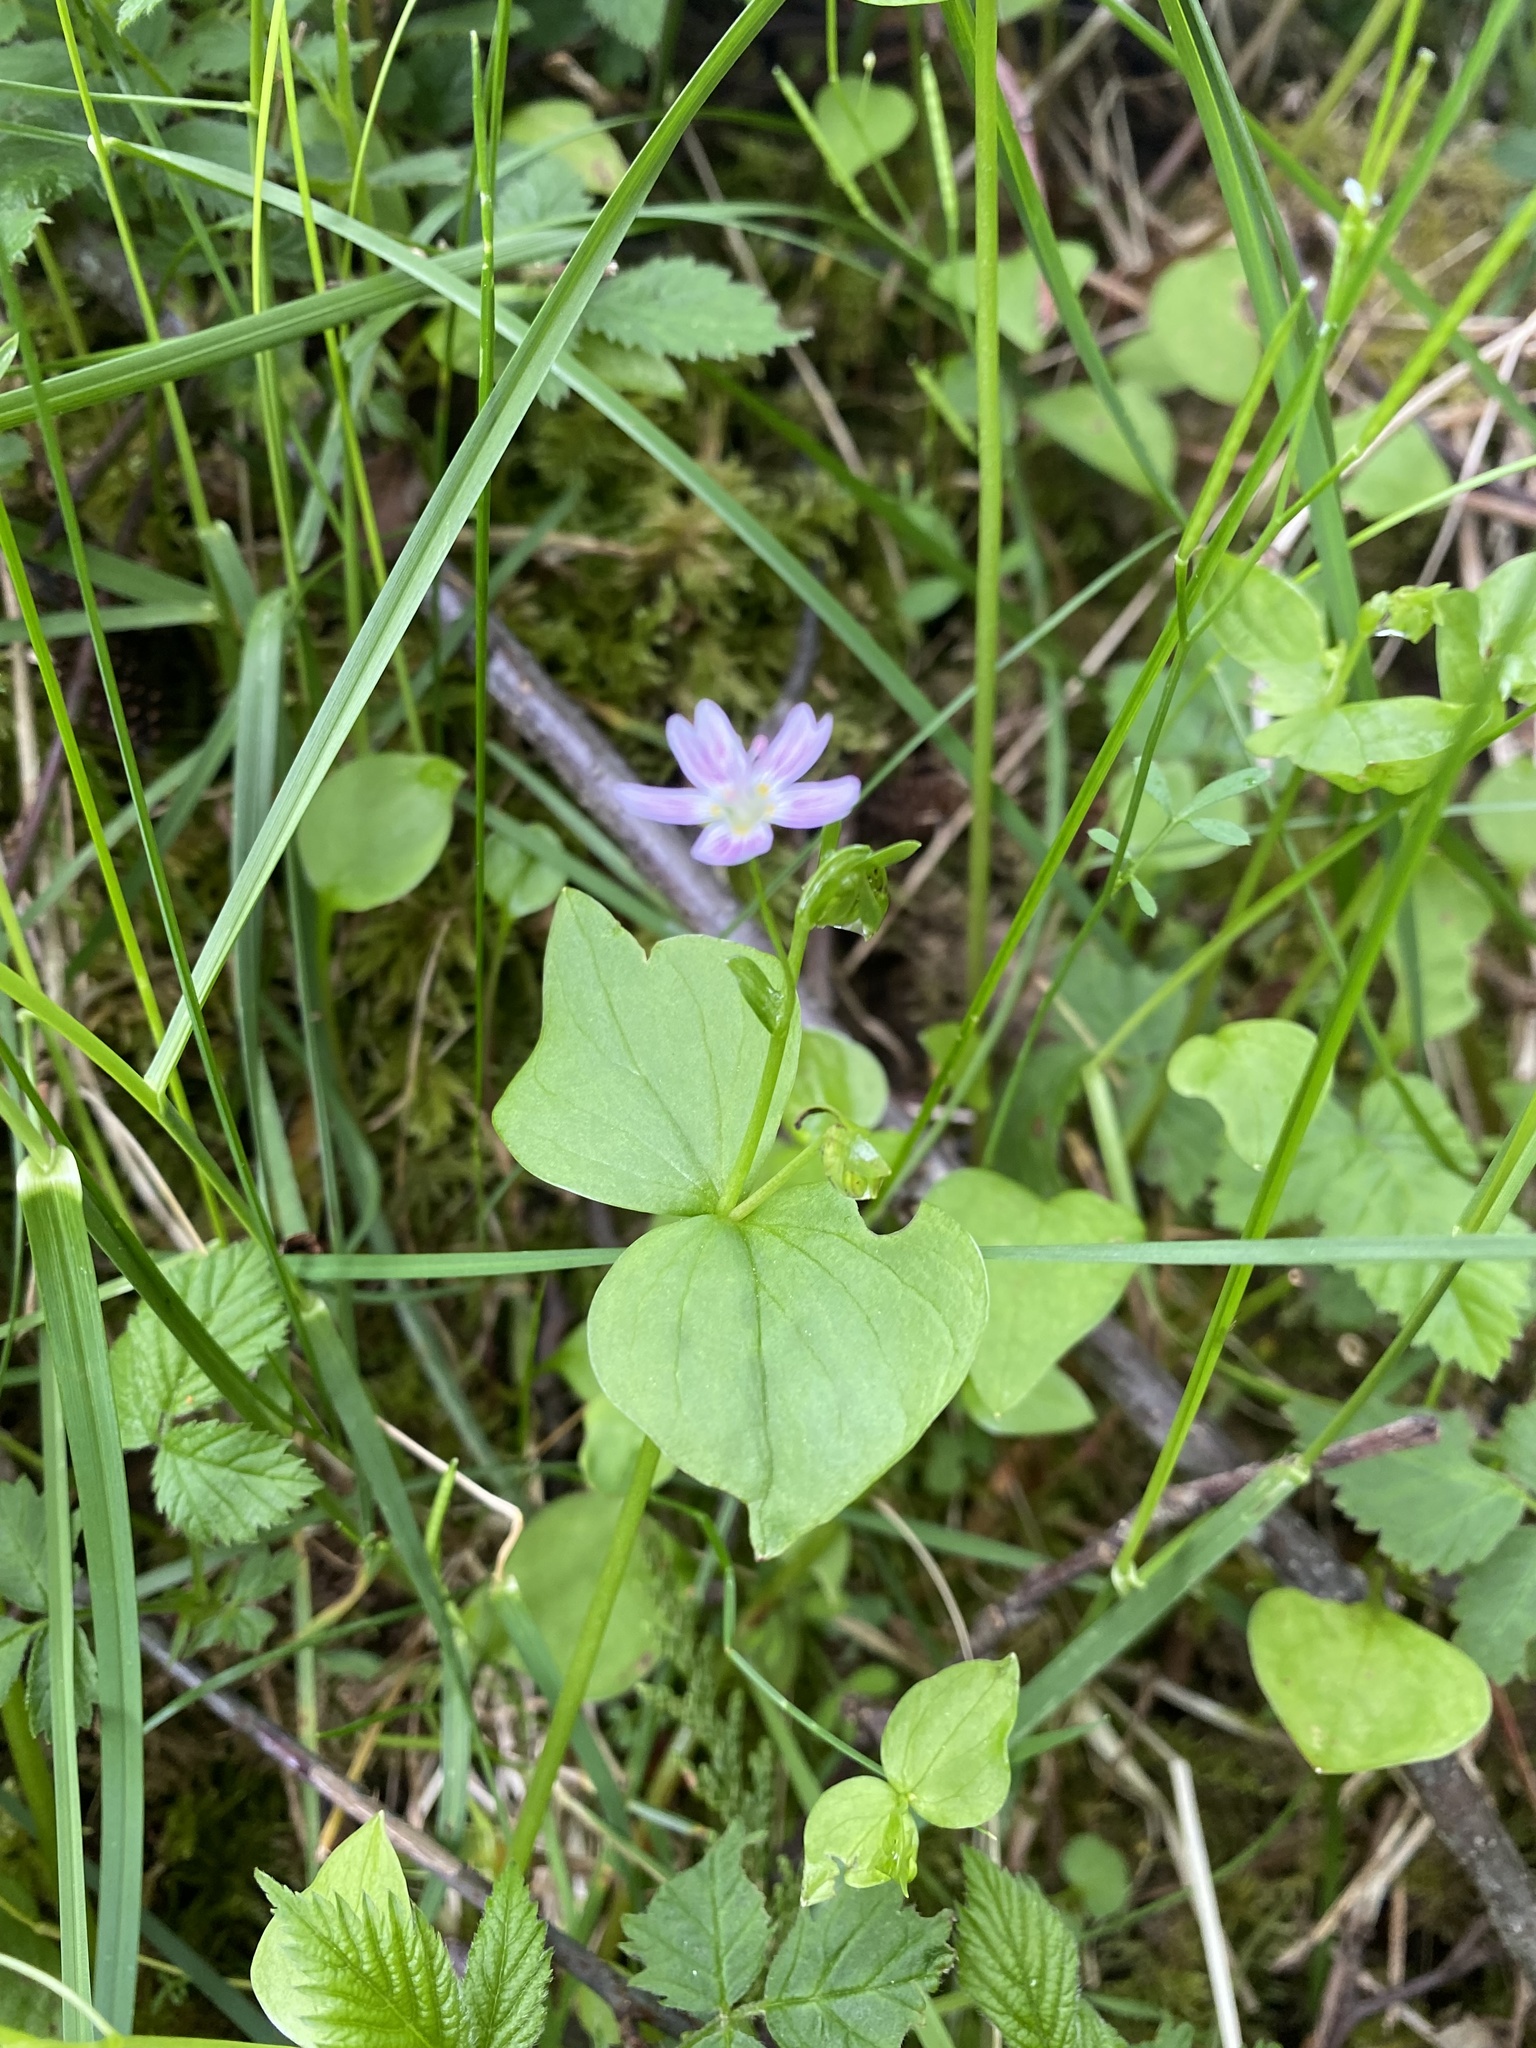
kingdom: Plantae
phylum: Tracheophyta
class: Magnoliopsida
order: Caryophyllales
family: Montiaceae
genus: Claytonia
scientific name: Claytonia sibirica
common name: Pink purslane
